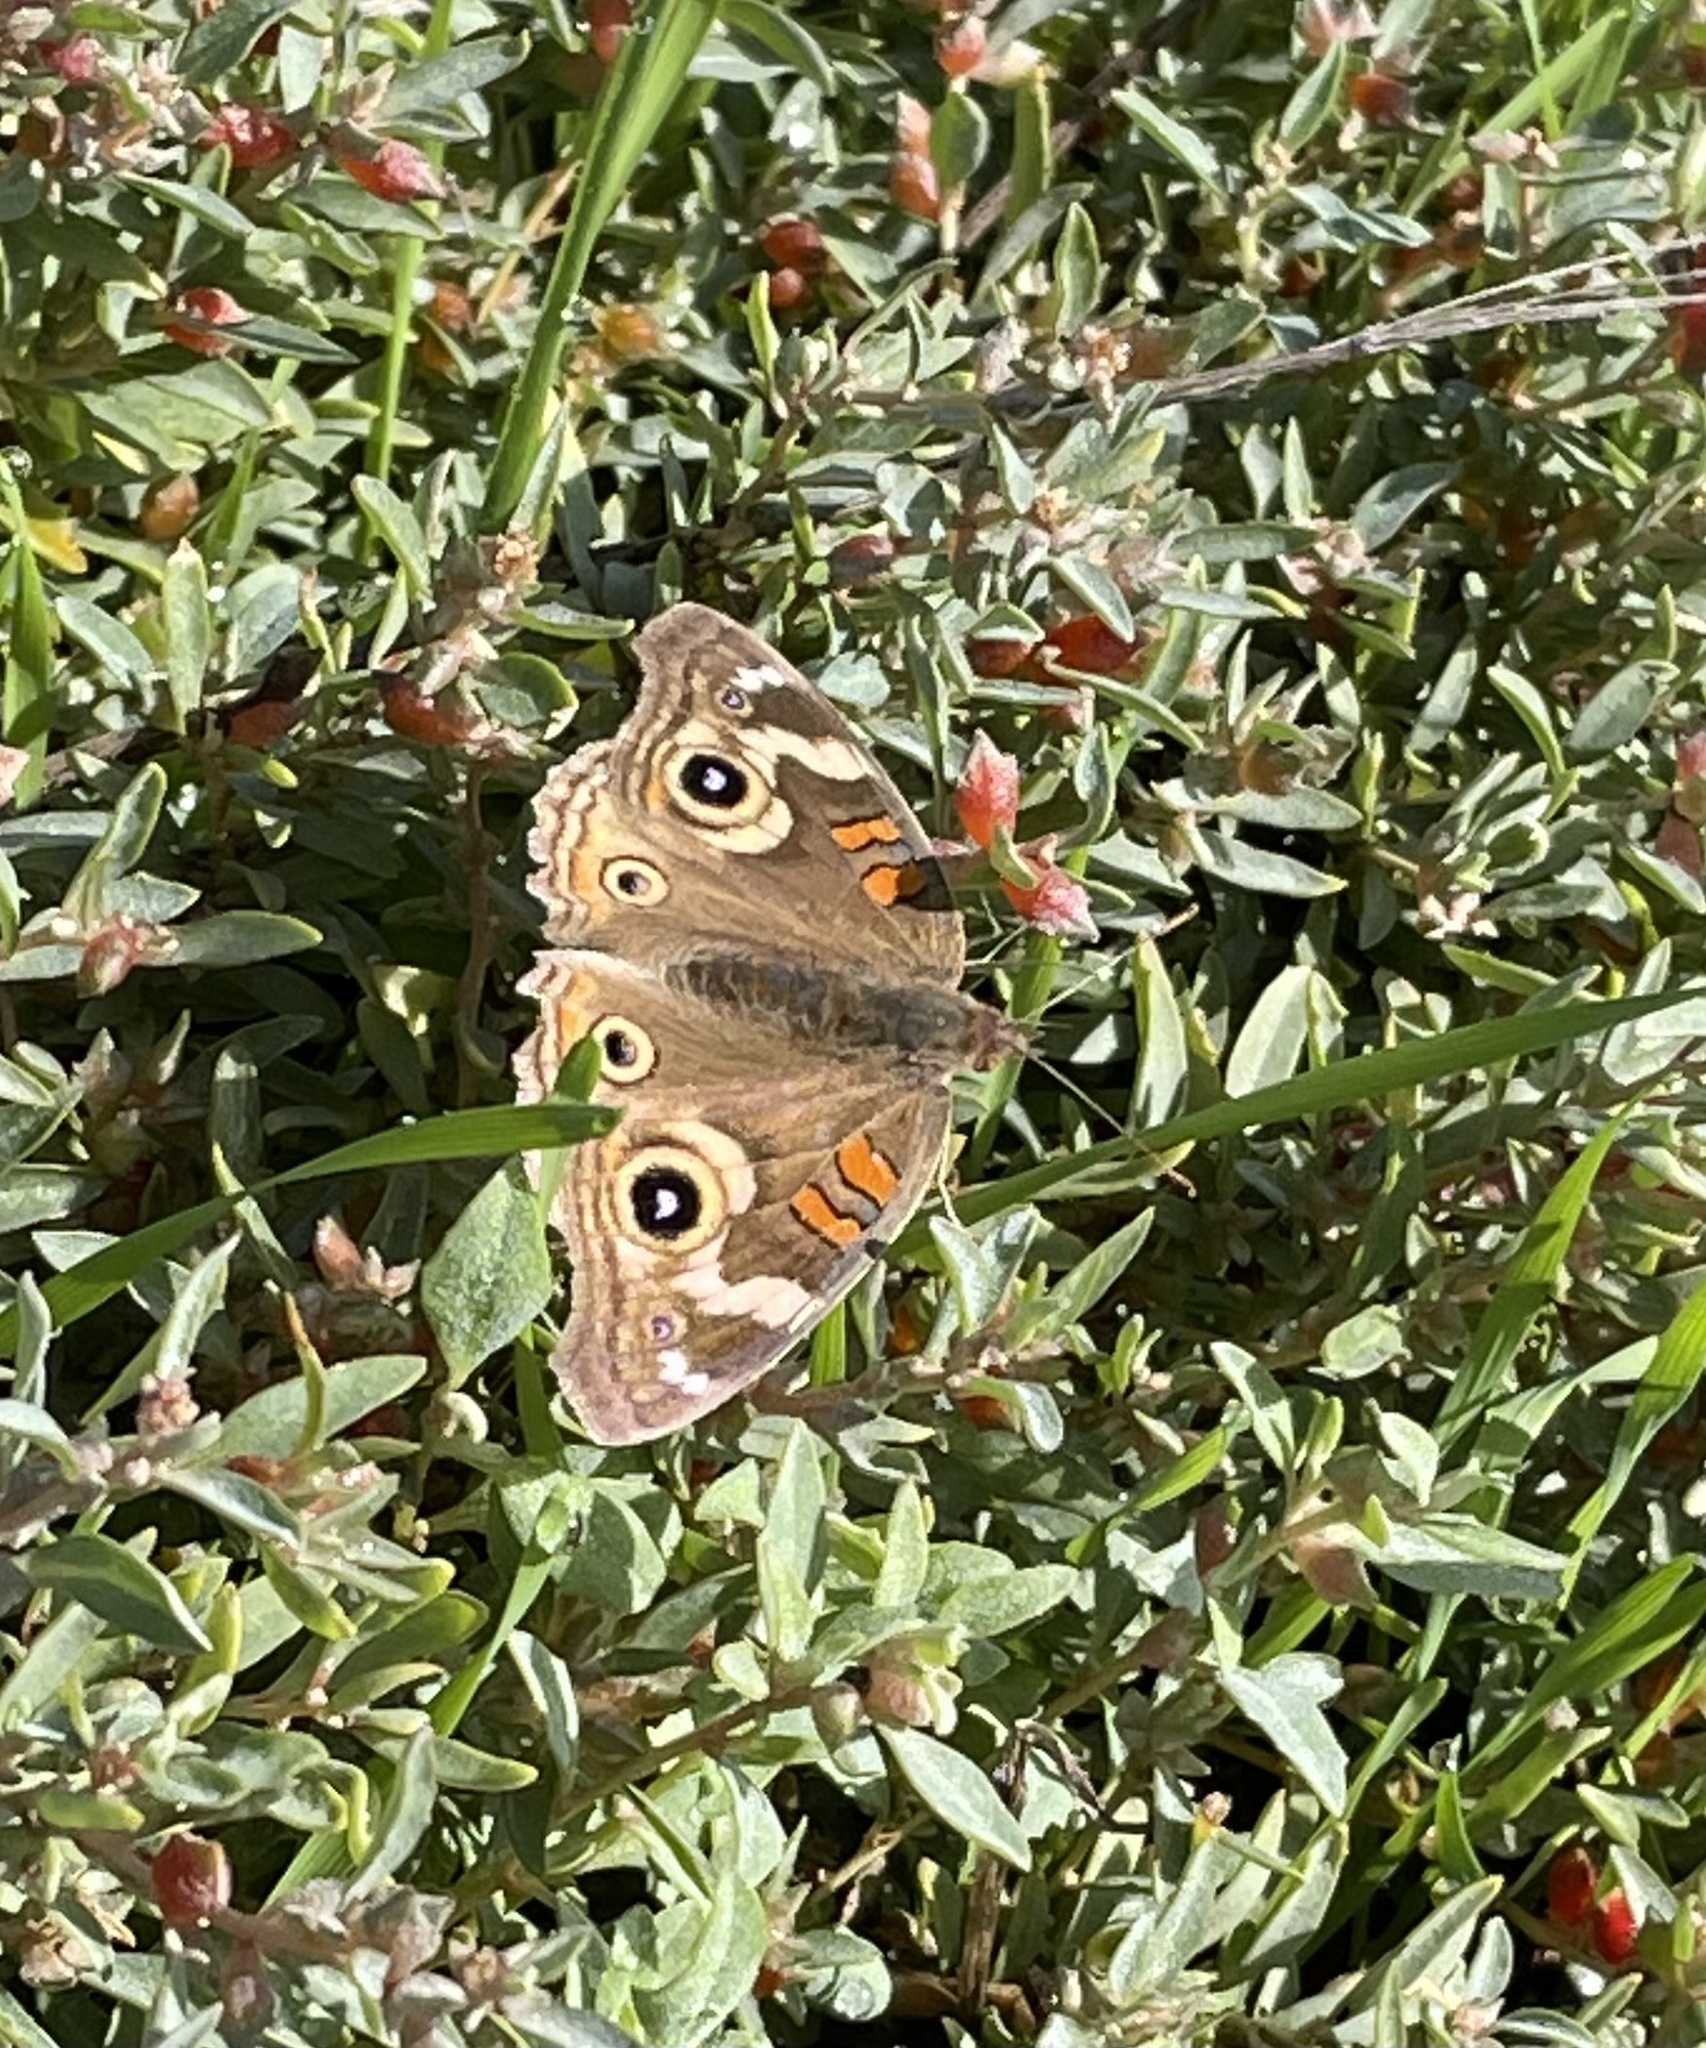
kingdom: Plantae
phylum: Tracheophyta
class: Magnoliopsida
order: Caryophyllales
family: Amaranthaceae
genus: Atriplex
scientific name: Atriplex semibaccata
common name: Australian saltbush
